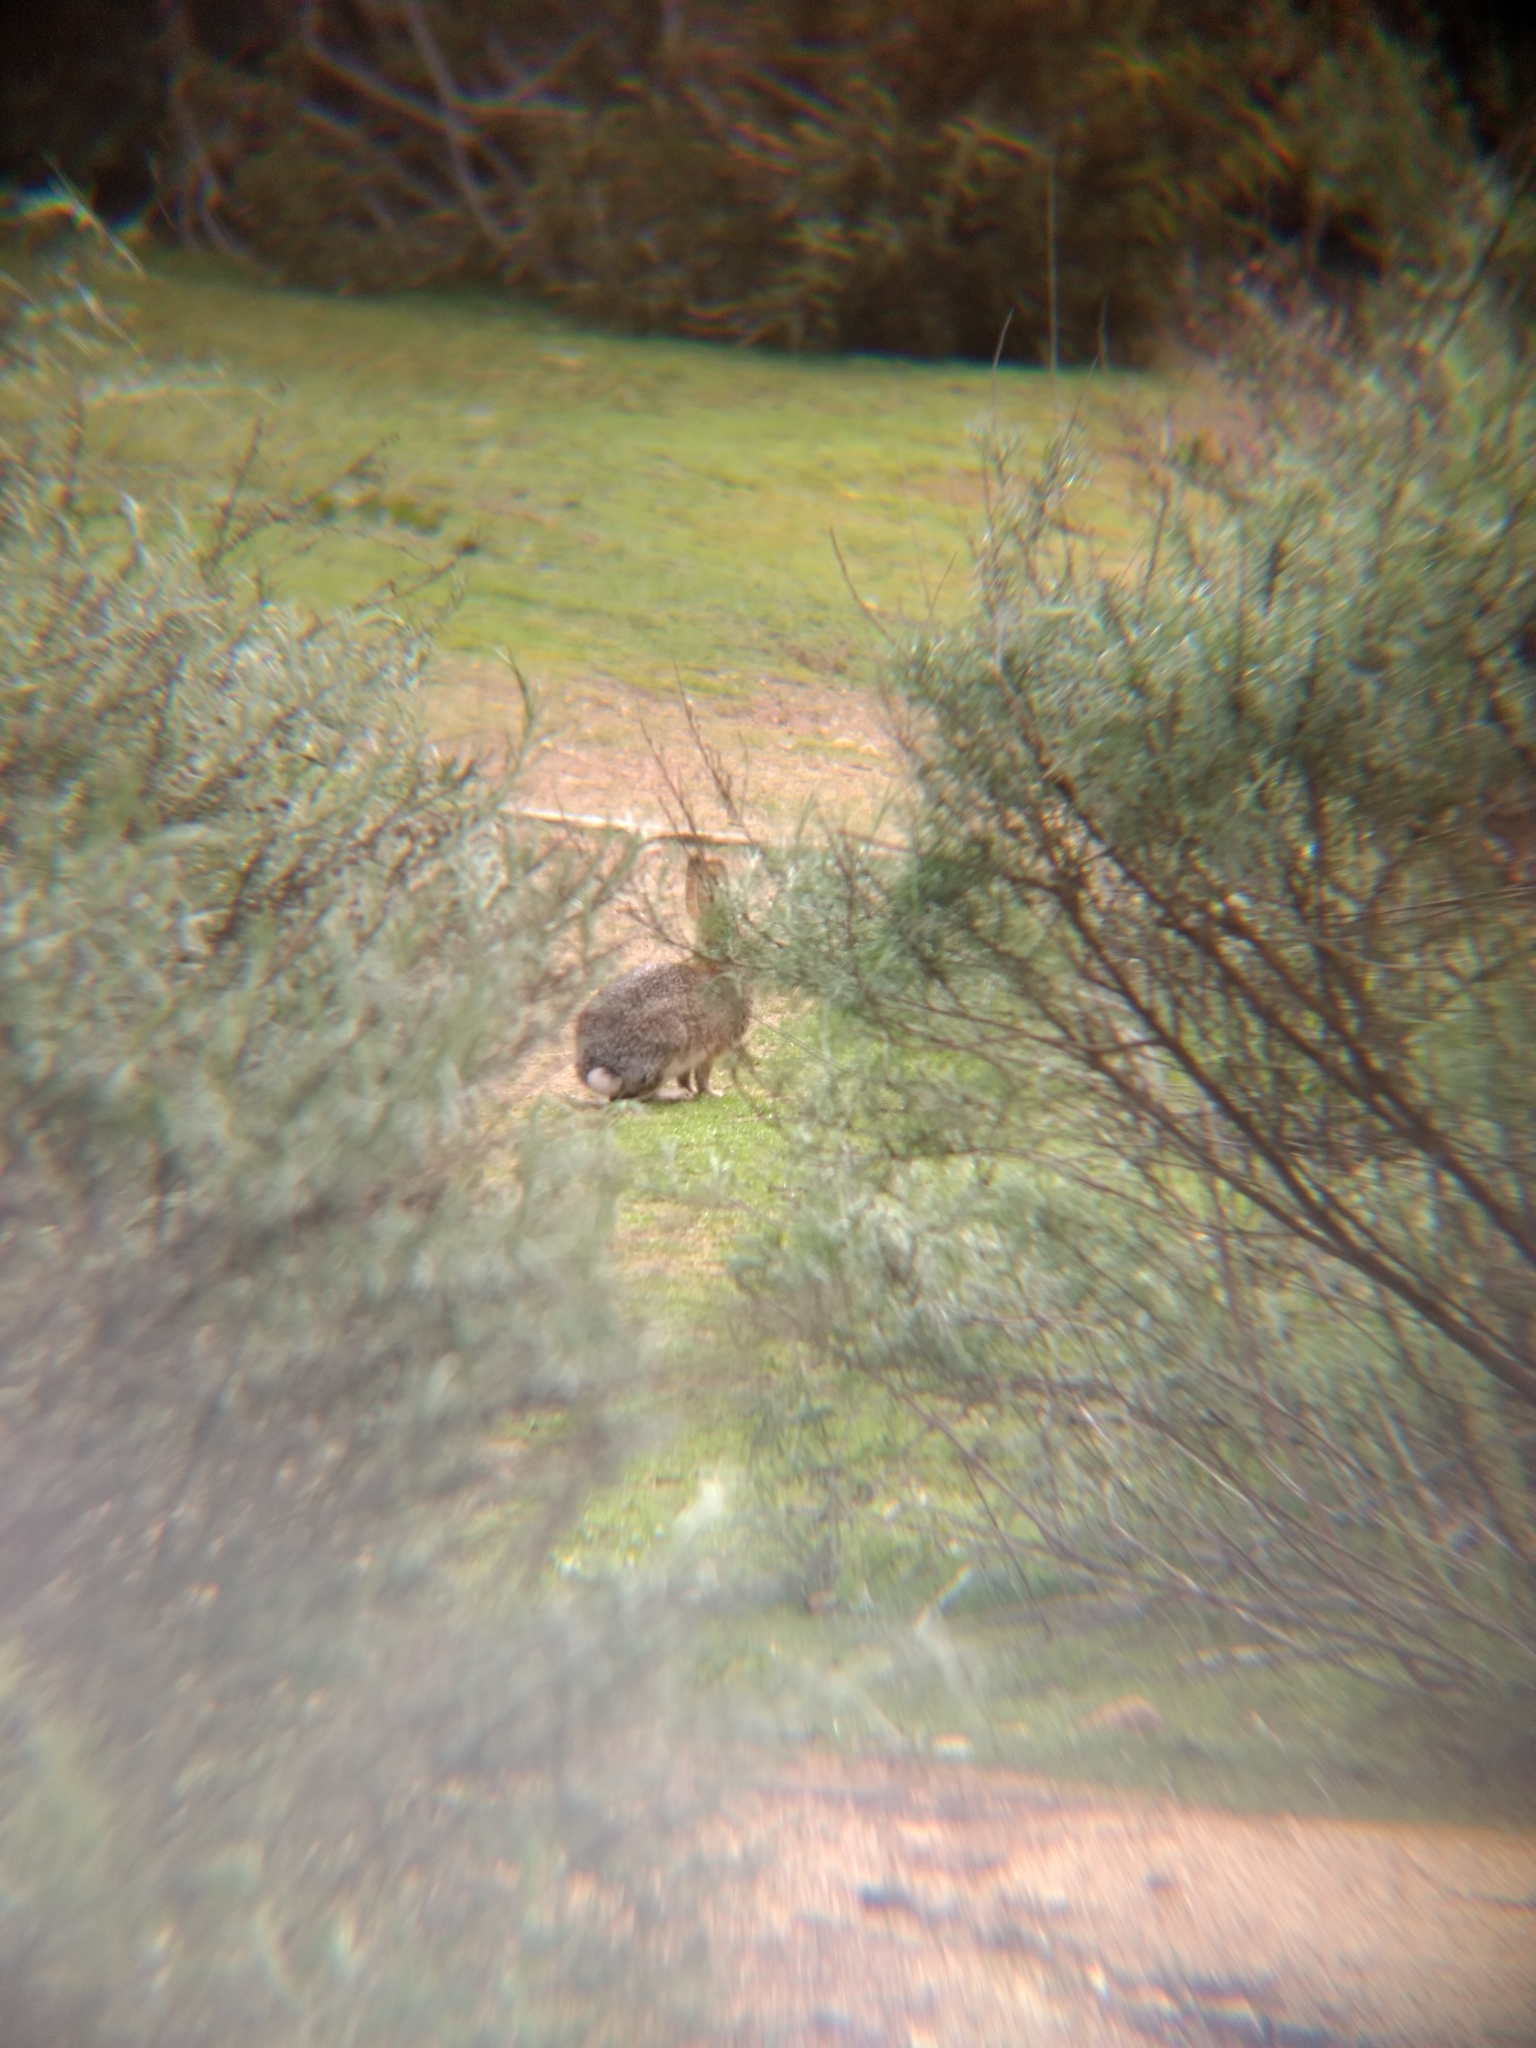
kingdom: Animalia
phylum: Chordata
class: Mammalia
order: Lagomorpha
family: Leporidae
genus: Sylvilagus
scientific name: Sylvilagus audubonii
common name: Desert cottontail
